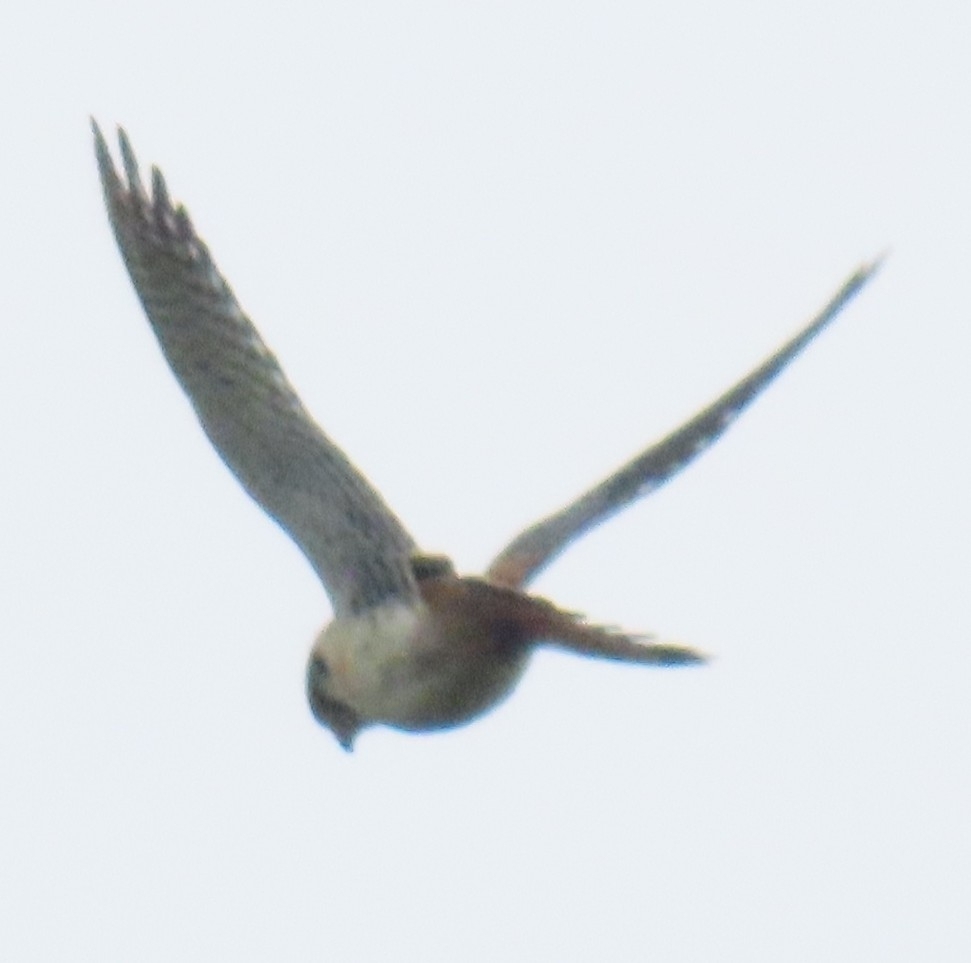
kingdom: Animalia
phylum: Chordata
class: Aves
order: Falconiformes
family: Falconidae
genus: Falco
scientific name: Falco sparverius
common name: American kestrel
